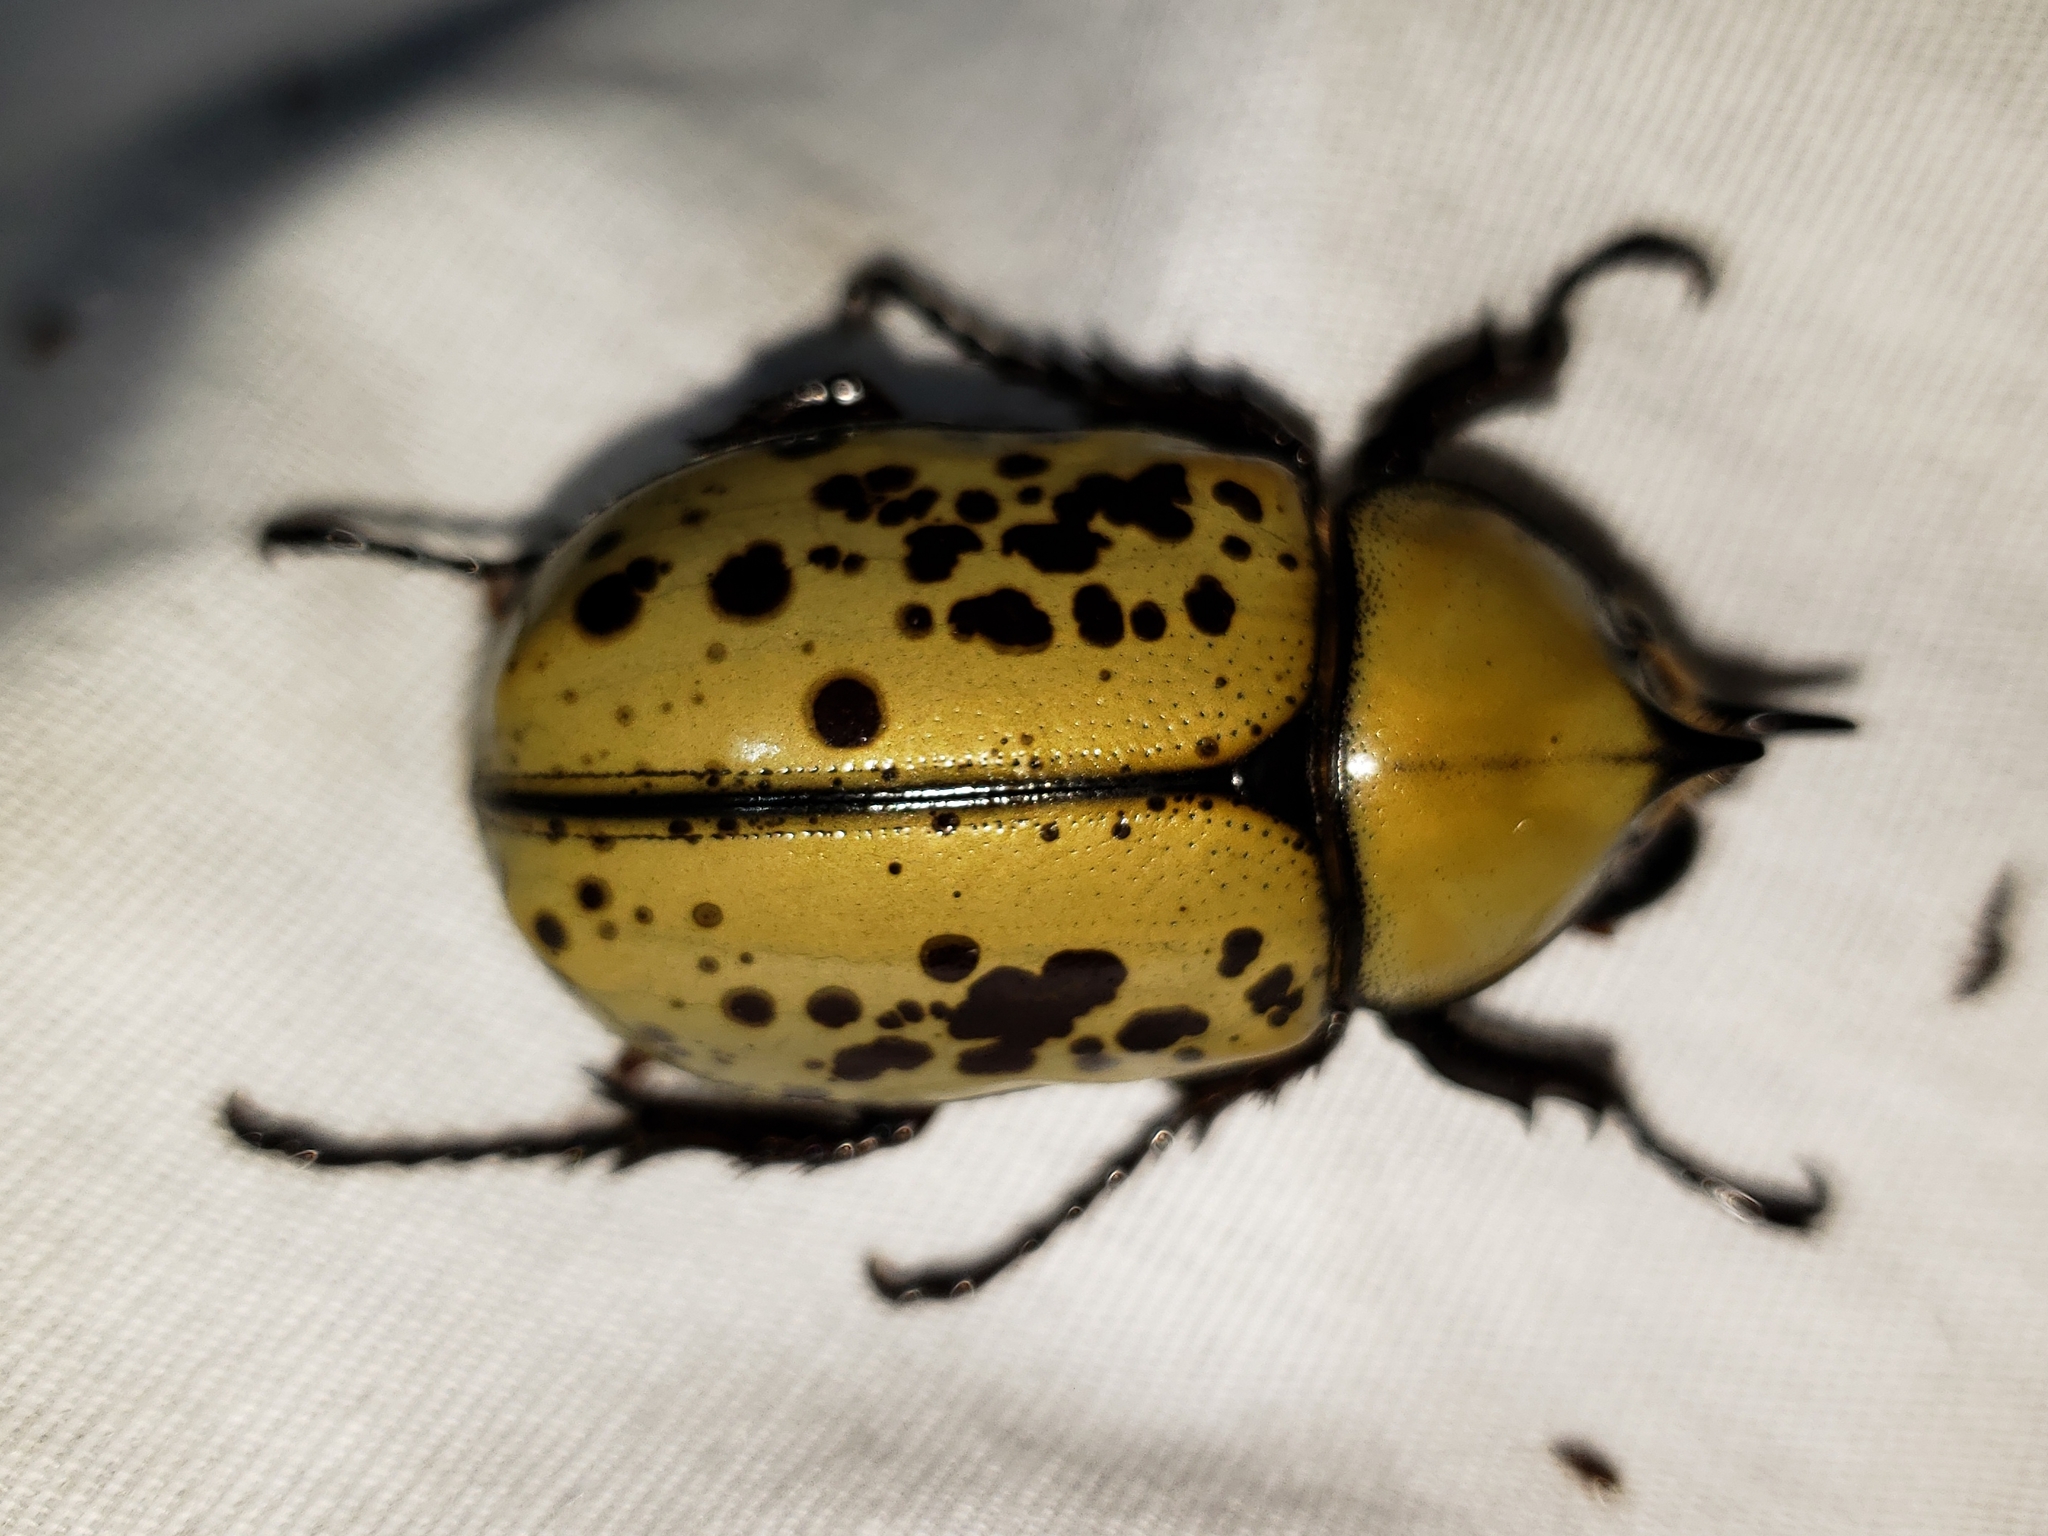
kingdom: Animalia
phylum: Arthropoda
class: Insecta
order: Coleoptera
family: Scarabaeidae
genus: Dynastes
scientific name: Dynastes tityus
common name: Eastern hercules beetle
